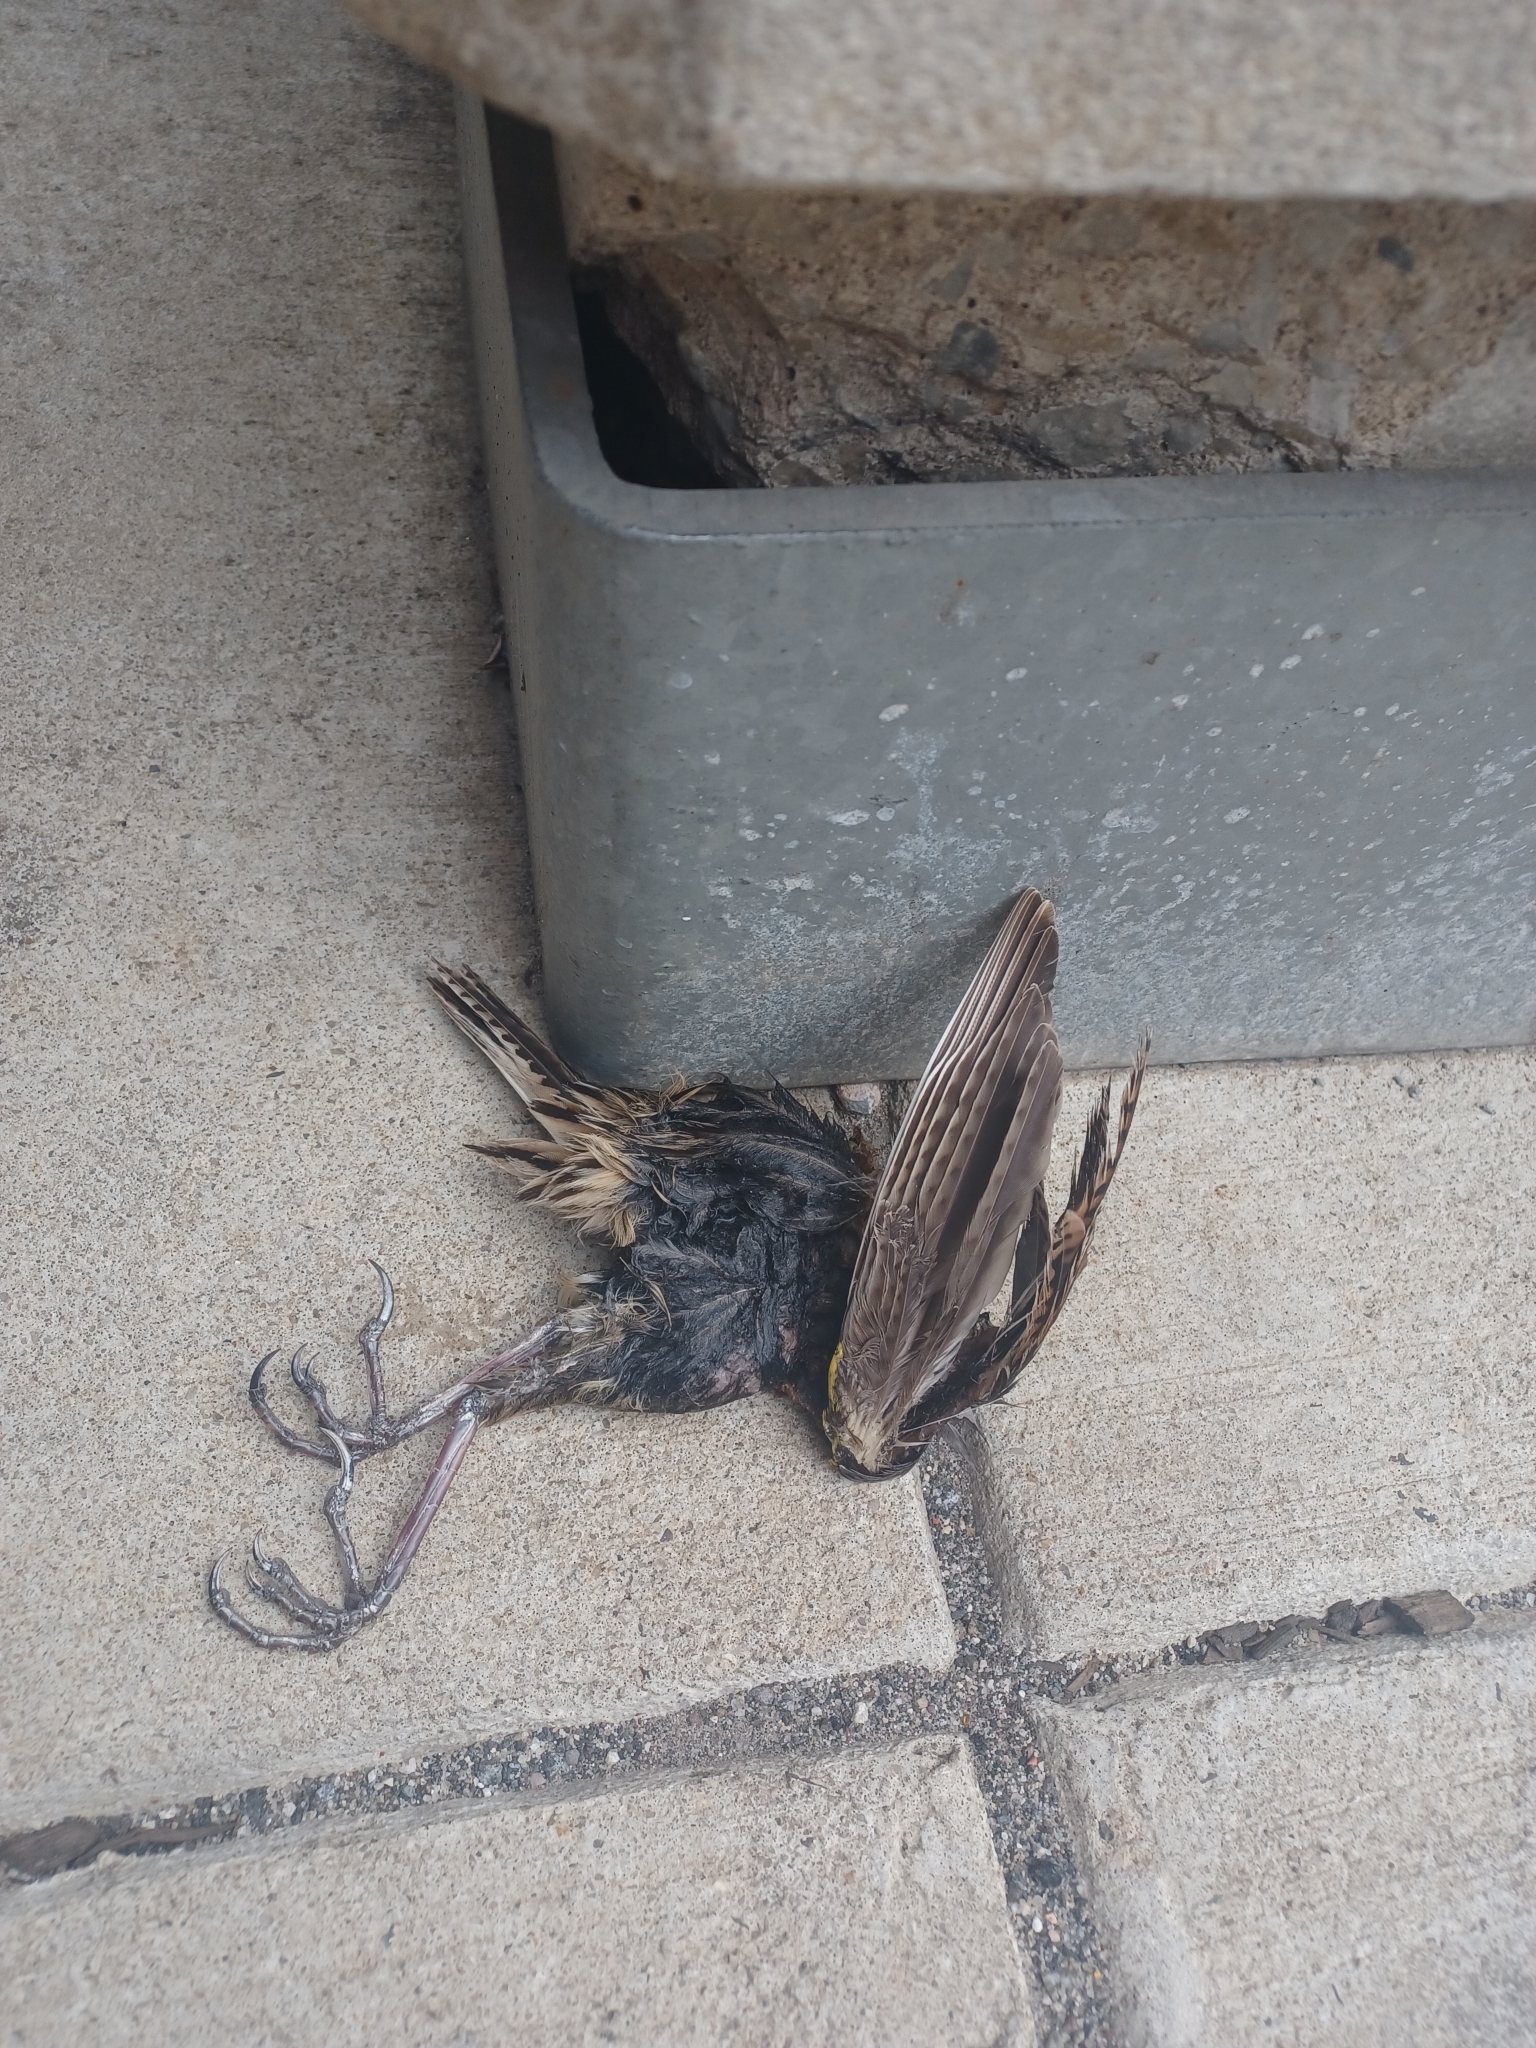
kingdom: Animalia
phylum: Chordata
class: Aves
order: Passeriformes
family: Icteridae
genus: Sturnella
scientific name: Sturnella magna
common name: Eastern meadowlark
